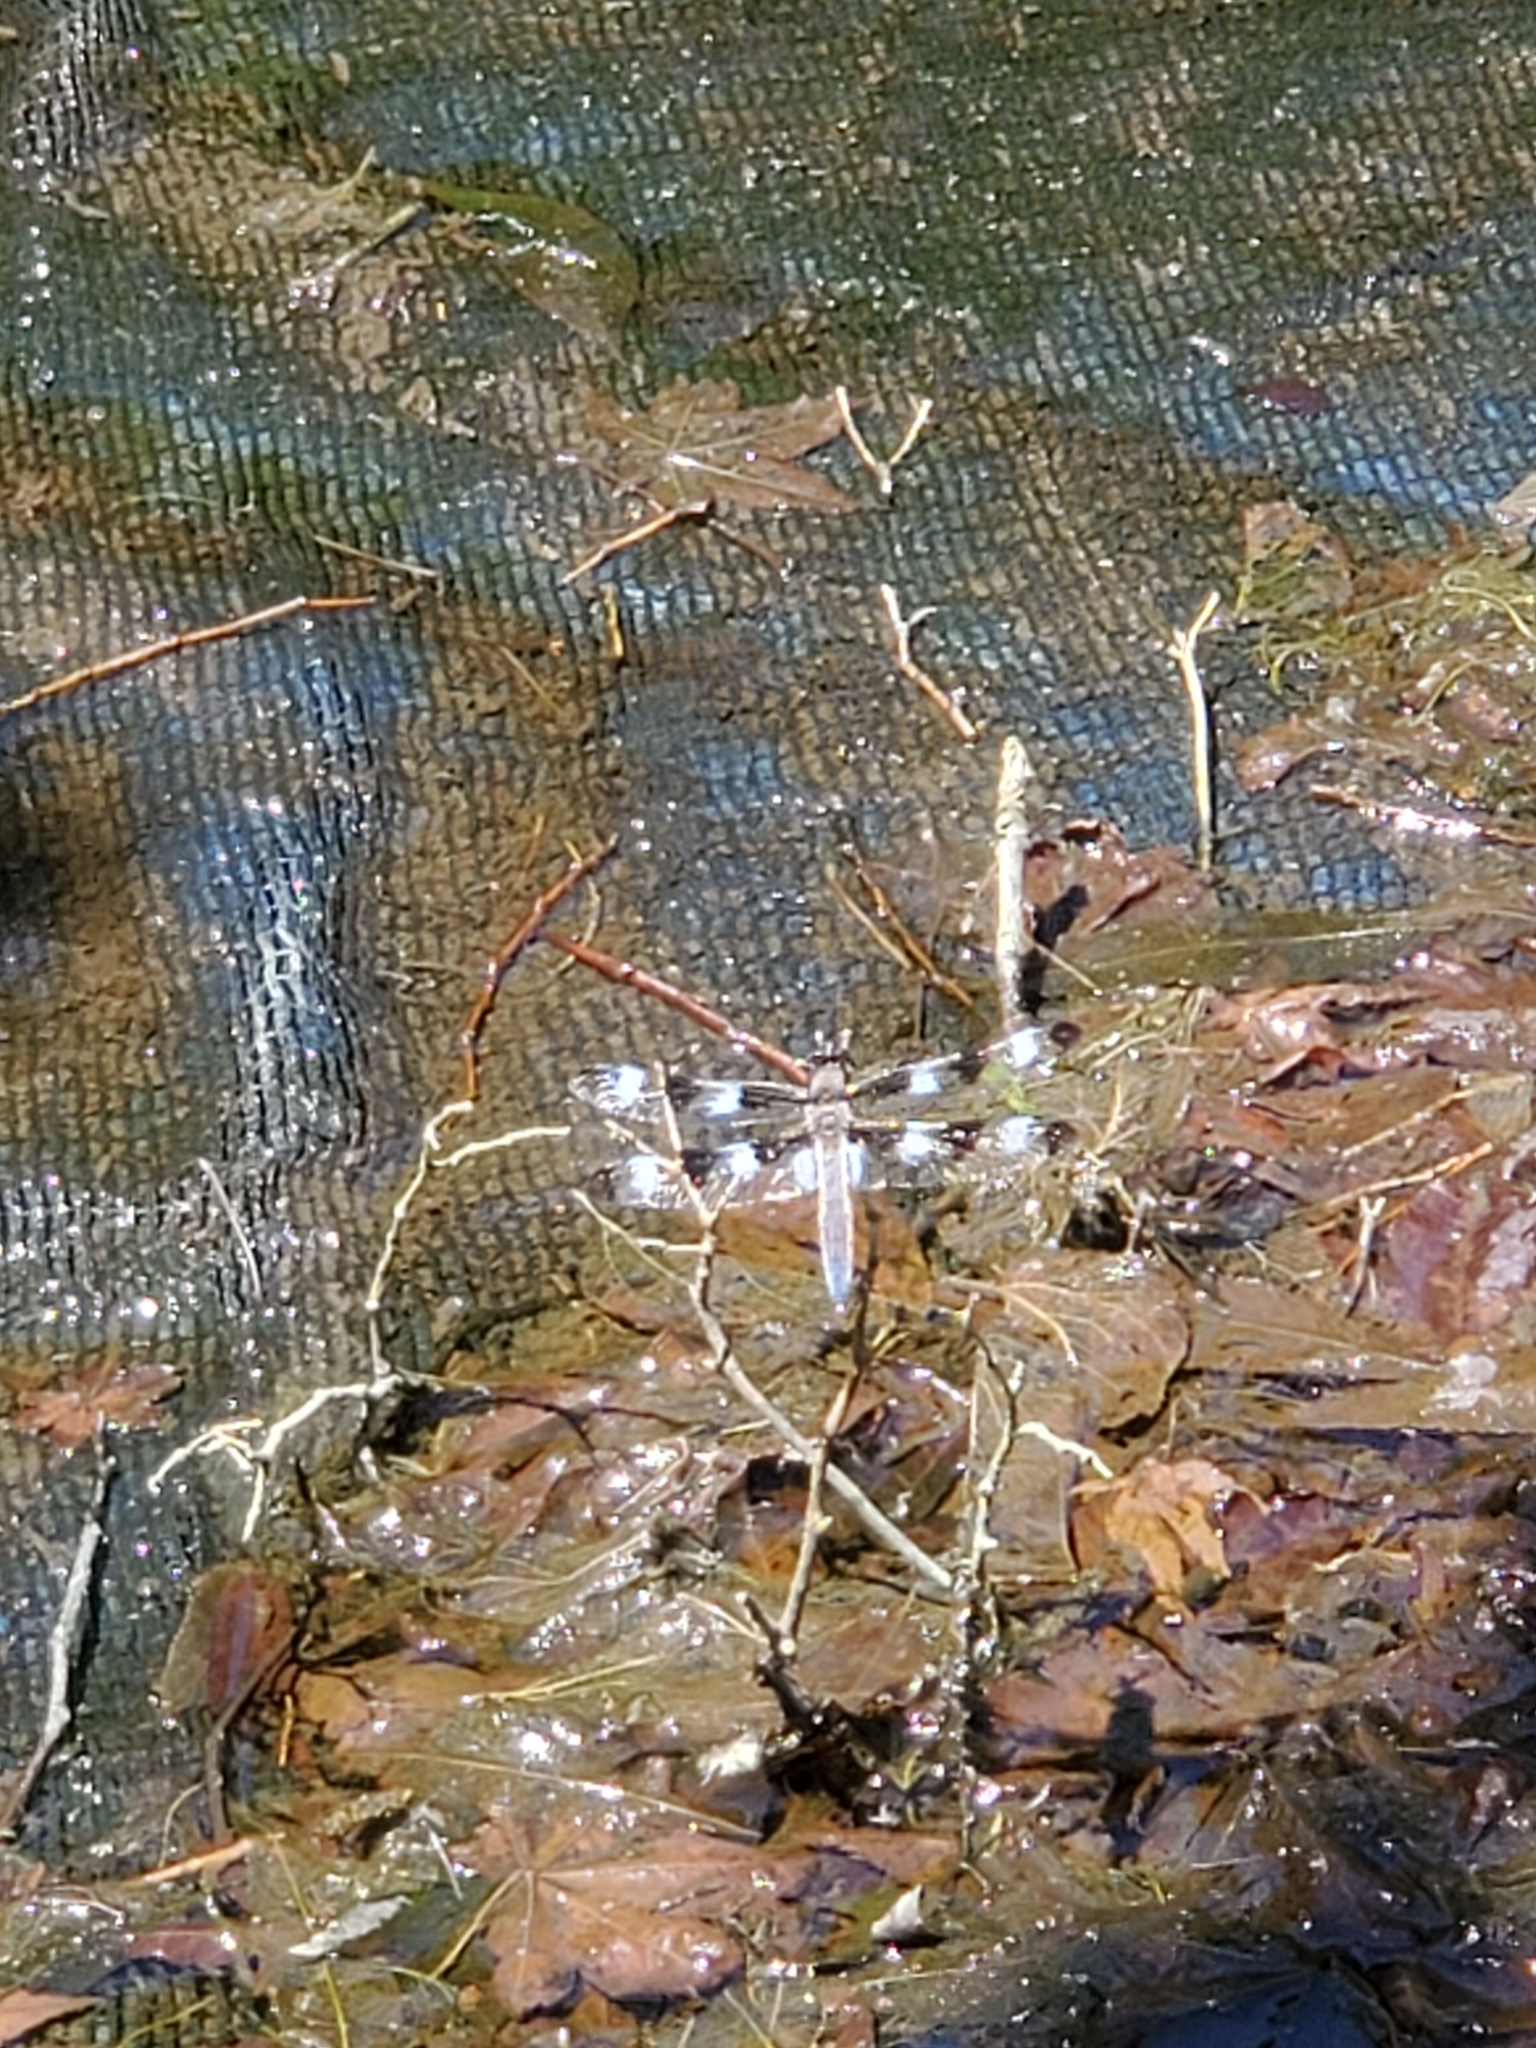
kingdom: Animalia
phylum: Arthropoda
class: Insecta
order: Odonata
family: Libellulidae
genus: Libellula
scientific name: Libellula pulchella
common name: Twelve-spotted skimmer
